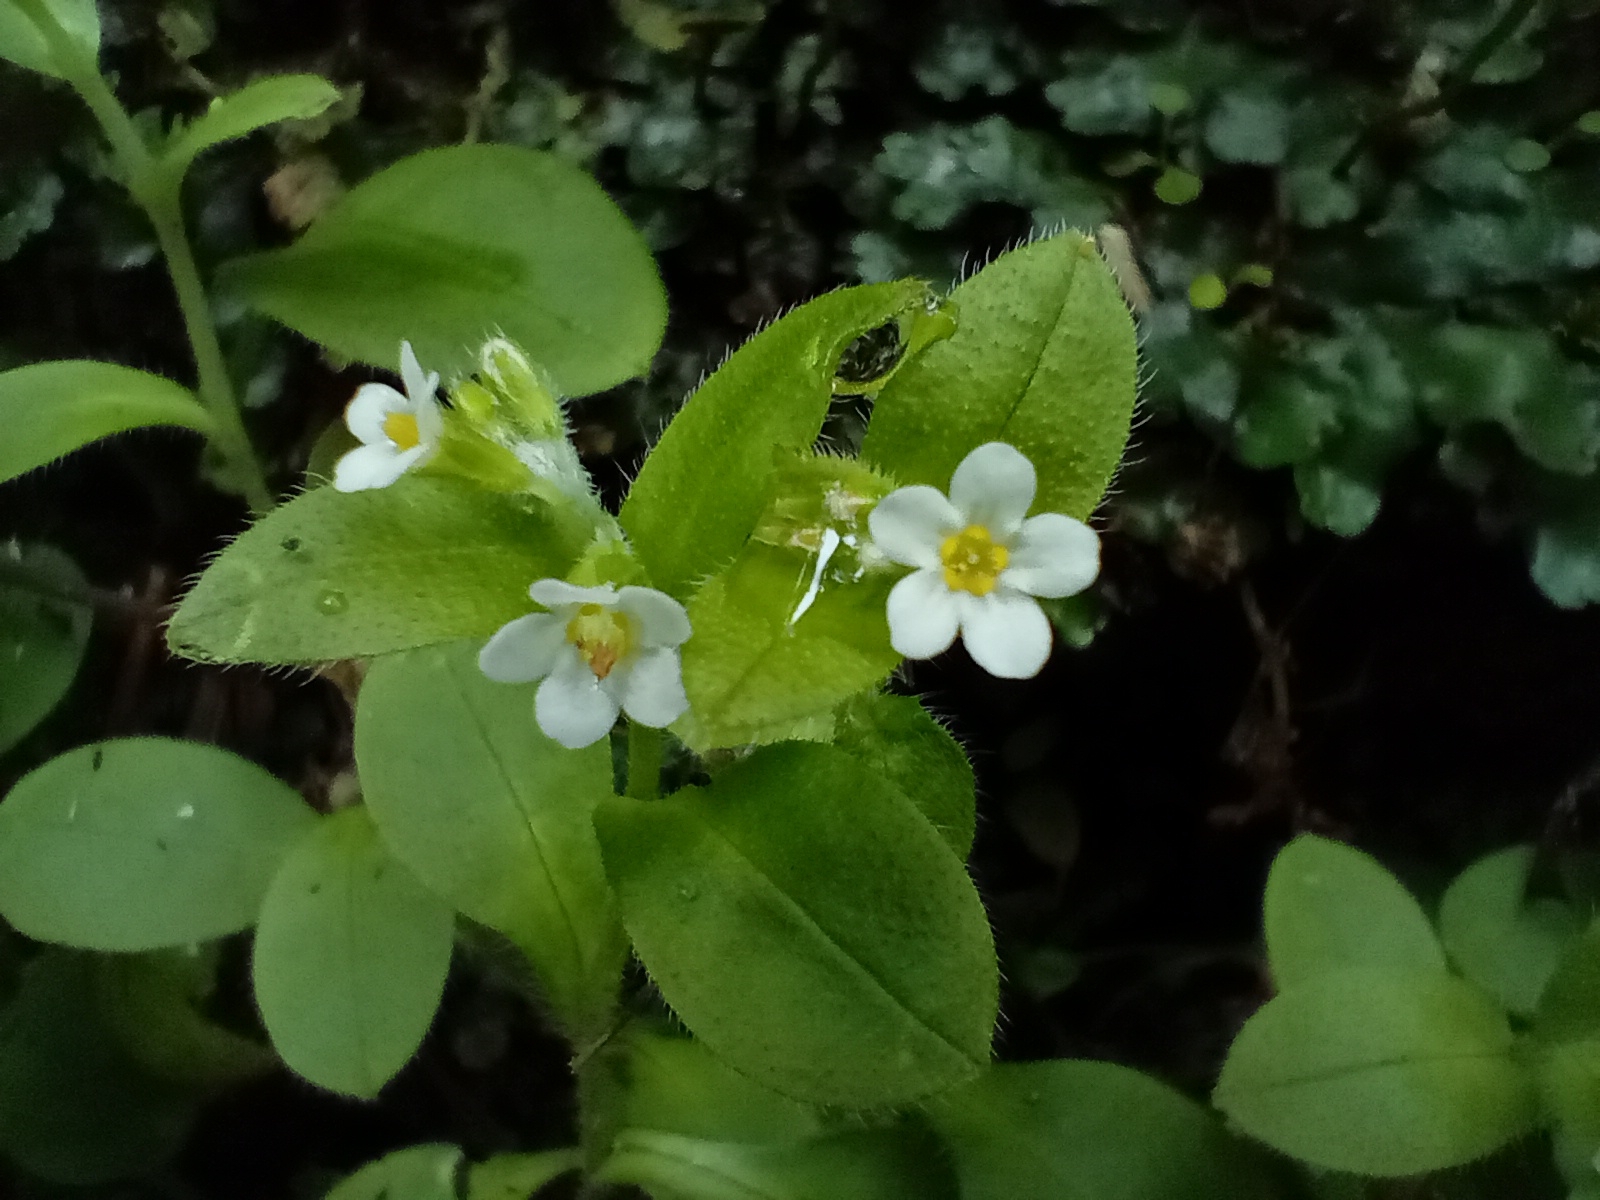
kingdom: Plantae
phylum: Tracheophyta
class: Magnoliopsida
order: Boraginales
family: Boraginaceae
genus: Myosotis
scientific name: Myosotis forsteri
